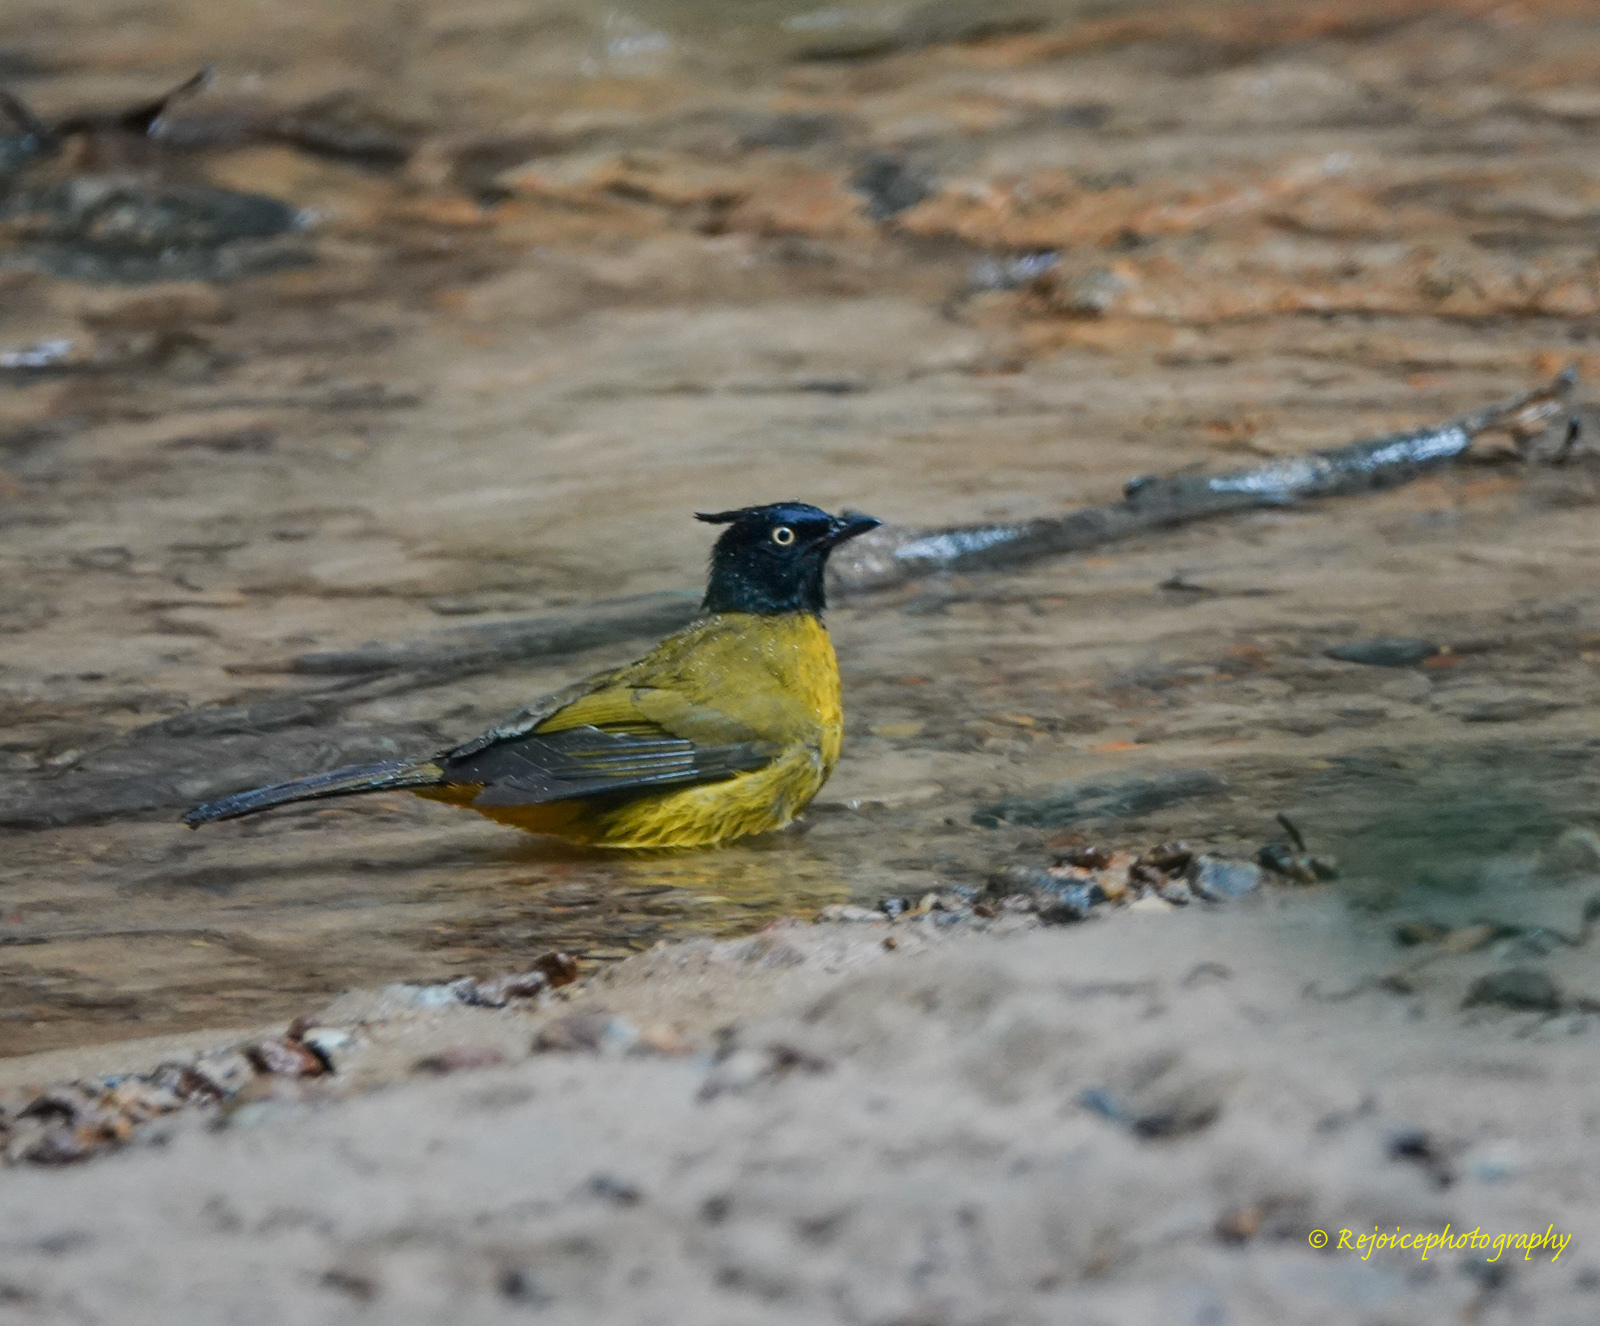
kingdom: Animalia
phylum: Chordata
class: Aves
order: Passeriformes
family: Pycnonotidae
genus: Pycnonotus
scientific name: Pycnonotus flaviventris
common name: Black-crested bulbul
